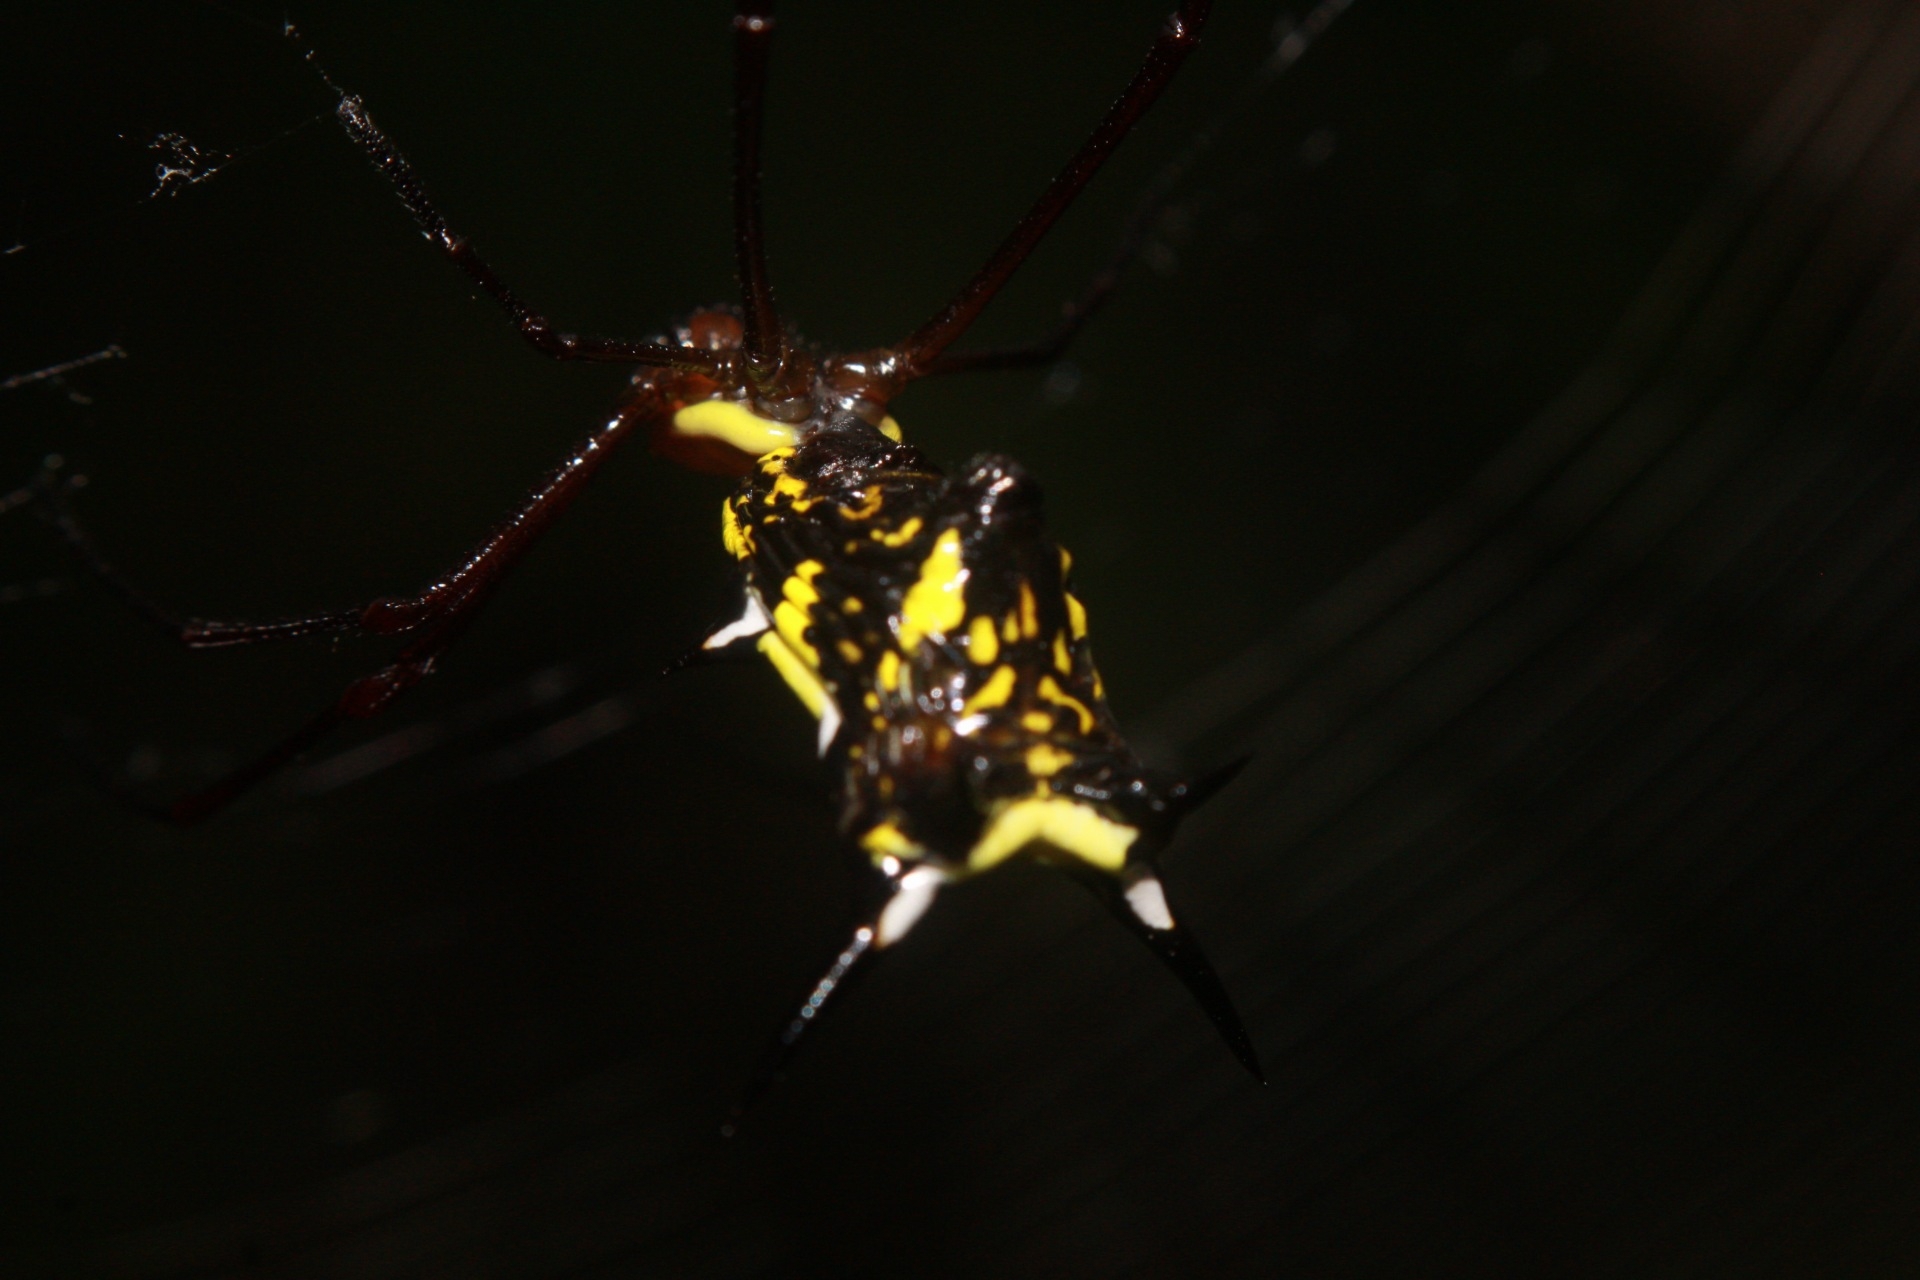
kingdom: Animalia
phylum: Arthropoda
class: Arachnida
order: Araneae
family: Araneidae
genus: Micrathena
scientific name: Micrathena miles
